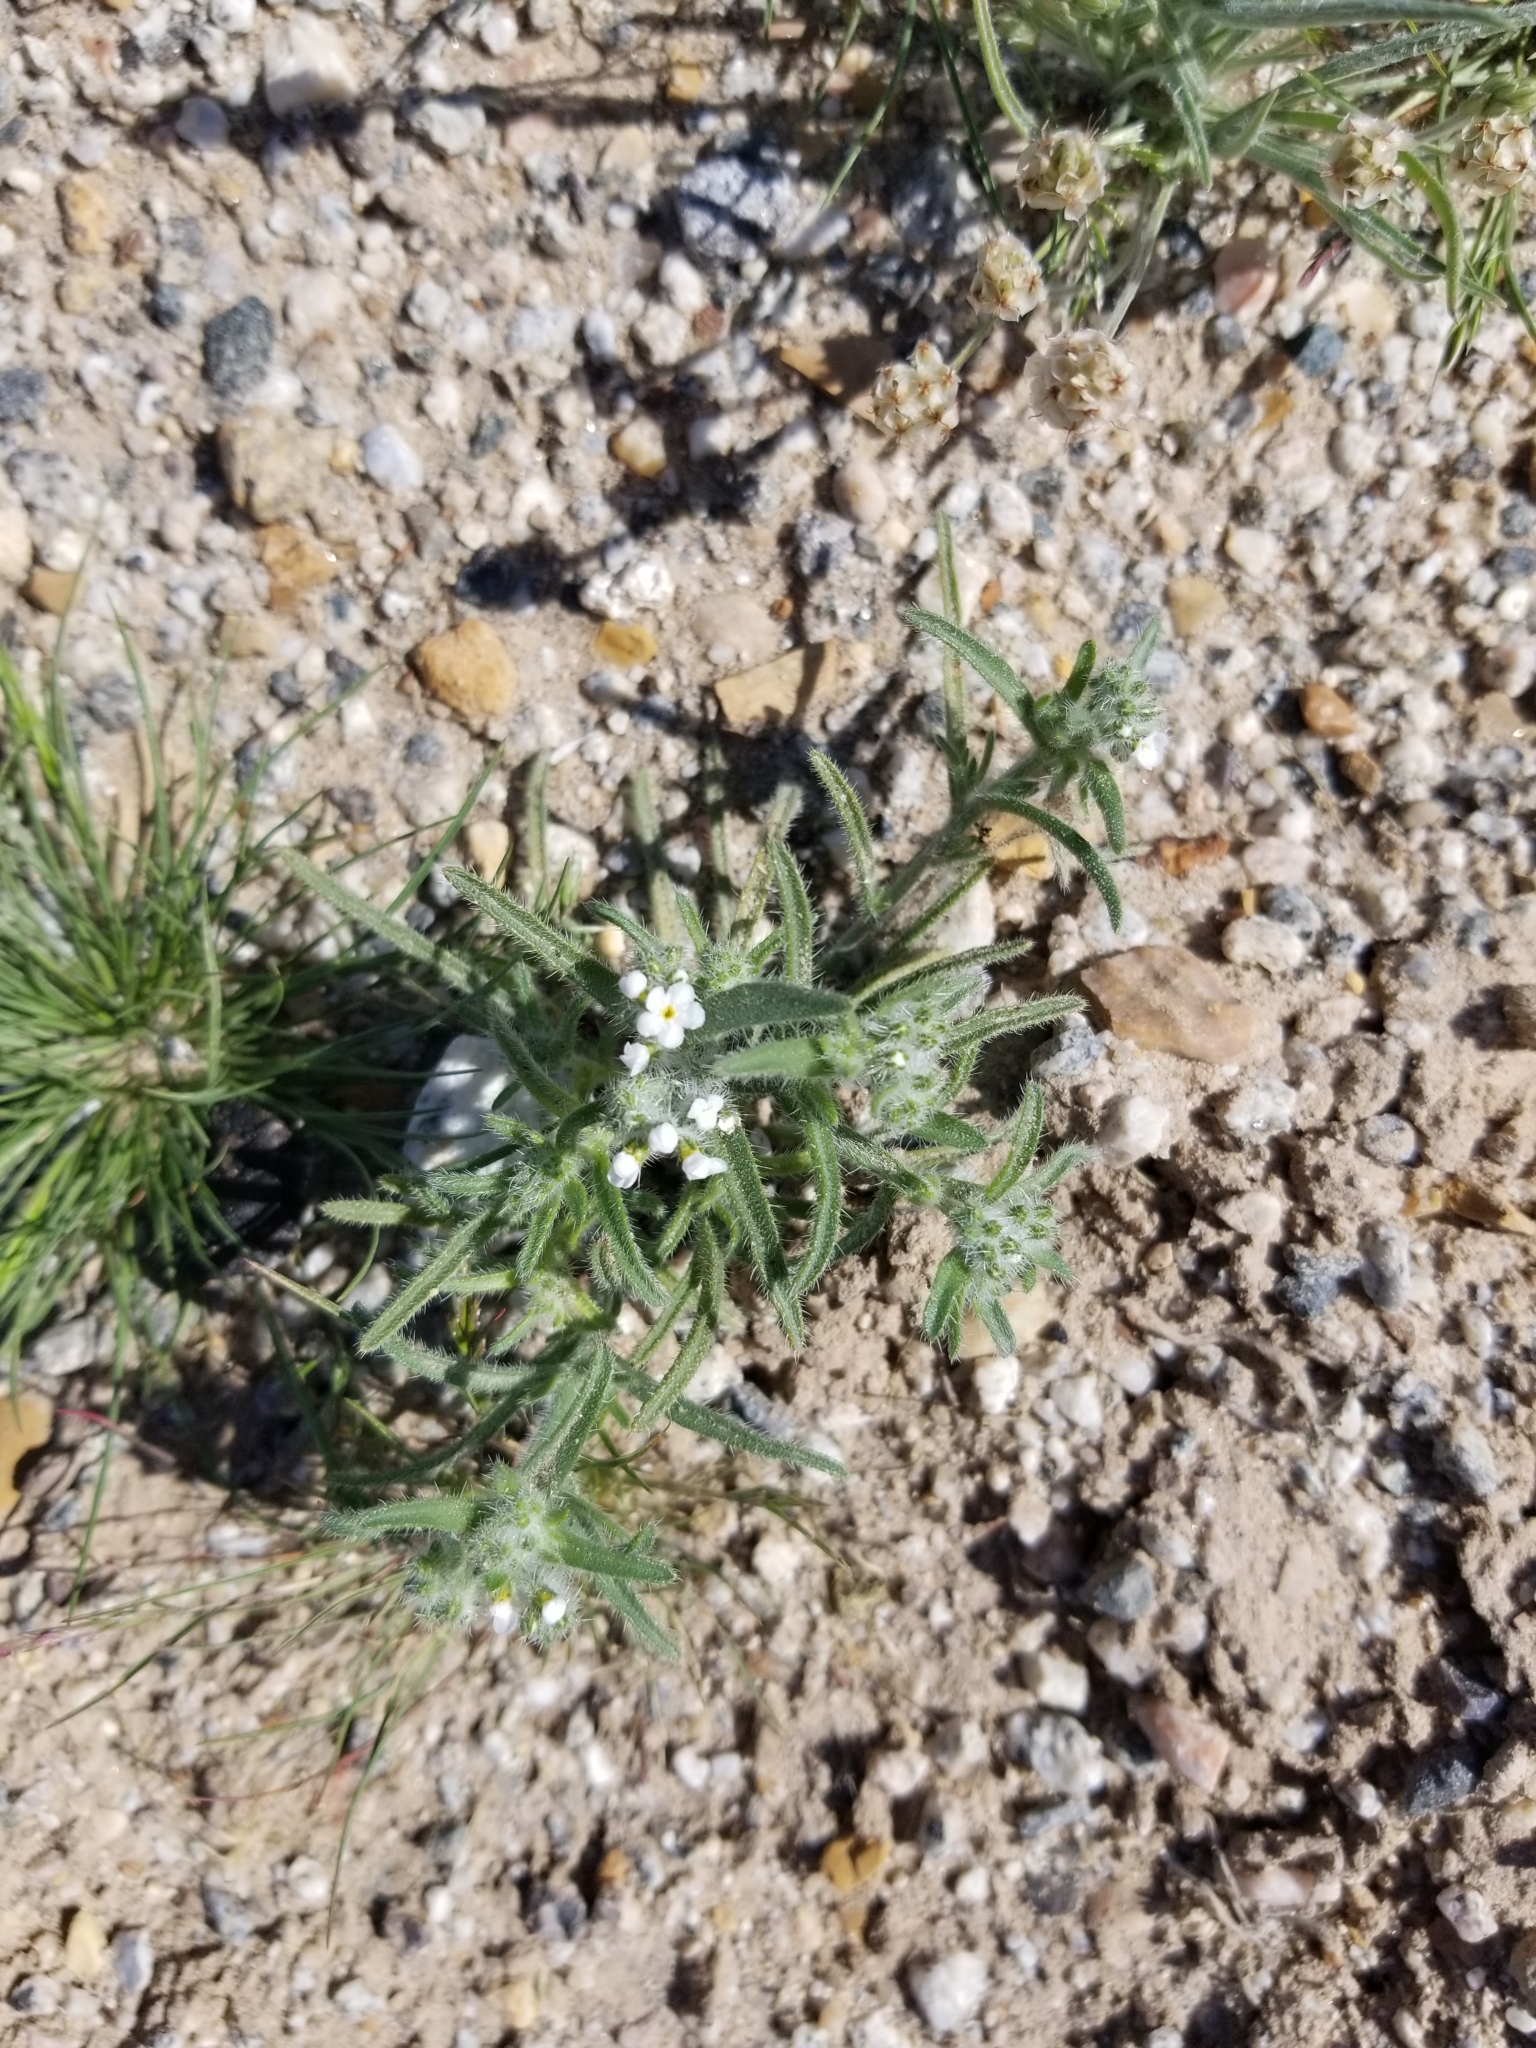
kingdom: Plantae
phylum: Tracheophyta
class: Magnoliopsida
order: Boraginales
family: Boraginaceae
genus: Johnstonella
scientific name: Johnstonella angustifolia
